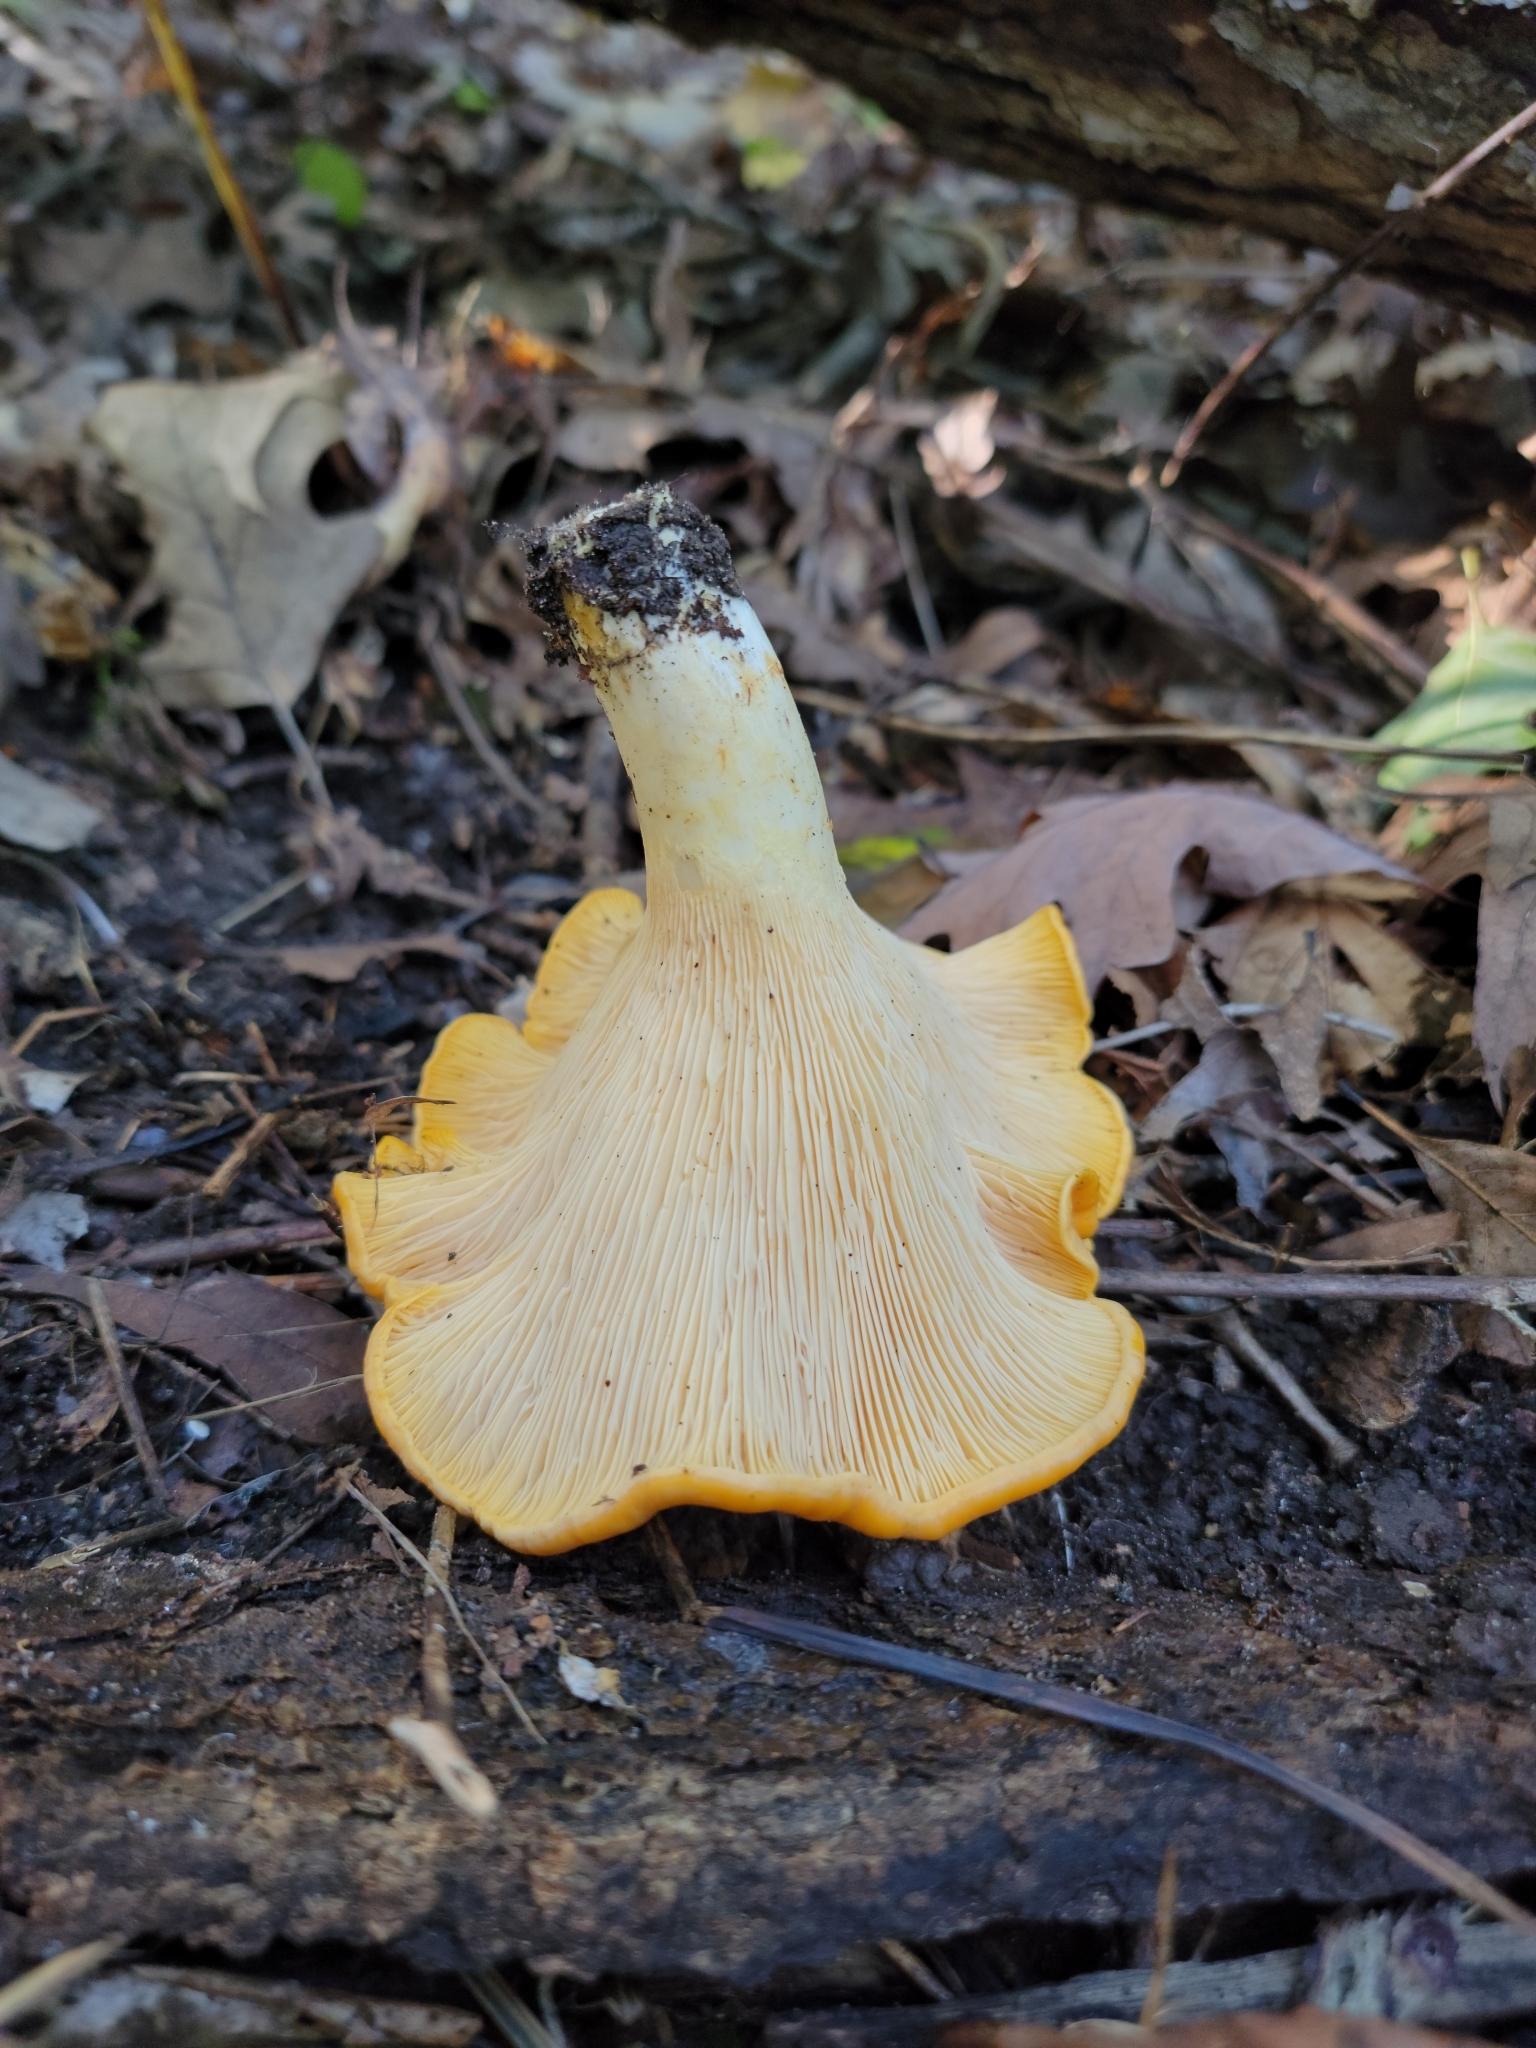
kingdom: Fungi
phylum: Basidiomycota
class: Agaricomycetes
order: Cantharellales
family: Hydnaceae
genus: Cantharellus
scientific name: Cantharellus phasmatis
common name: Ghost chanterelle
